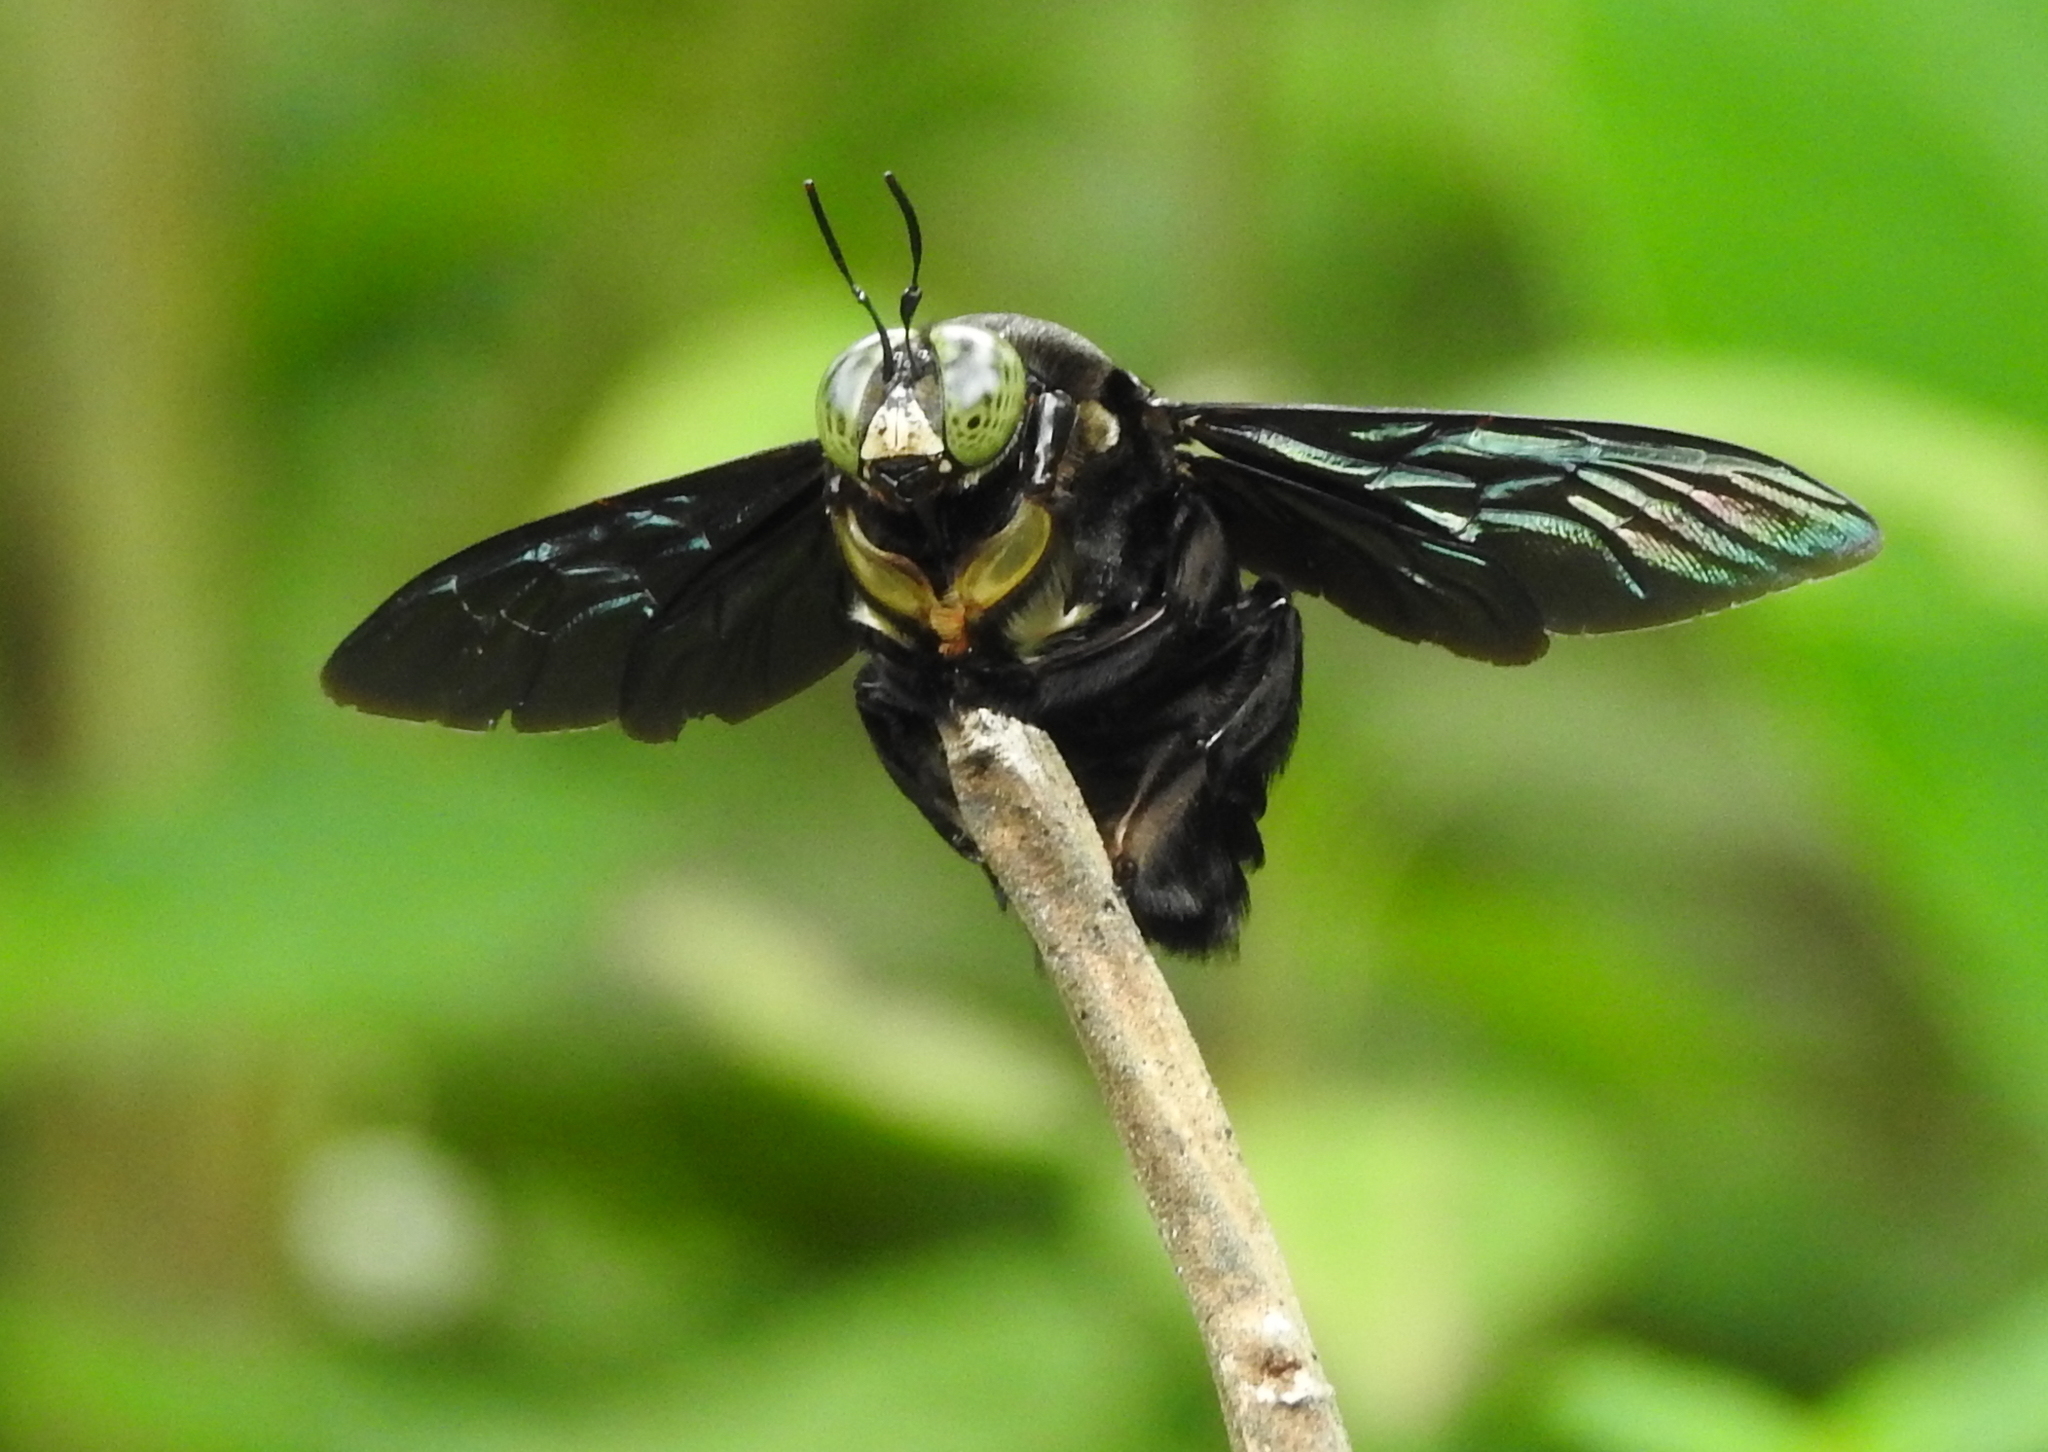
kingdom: Animalia
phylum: Arthropoda
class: Insecta
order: Hymenoptera
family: Apidae
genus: Xylocopa
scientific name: Xylocopa latipes
